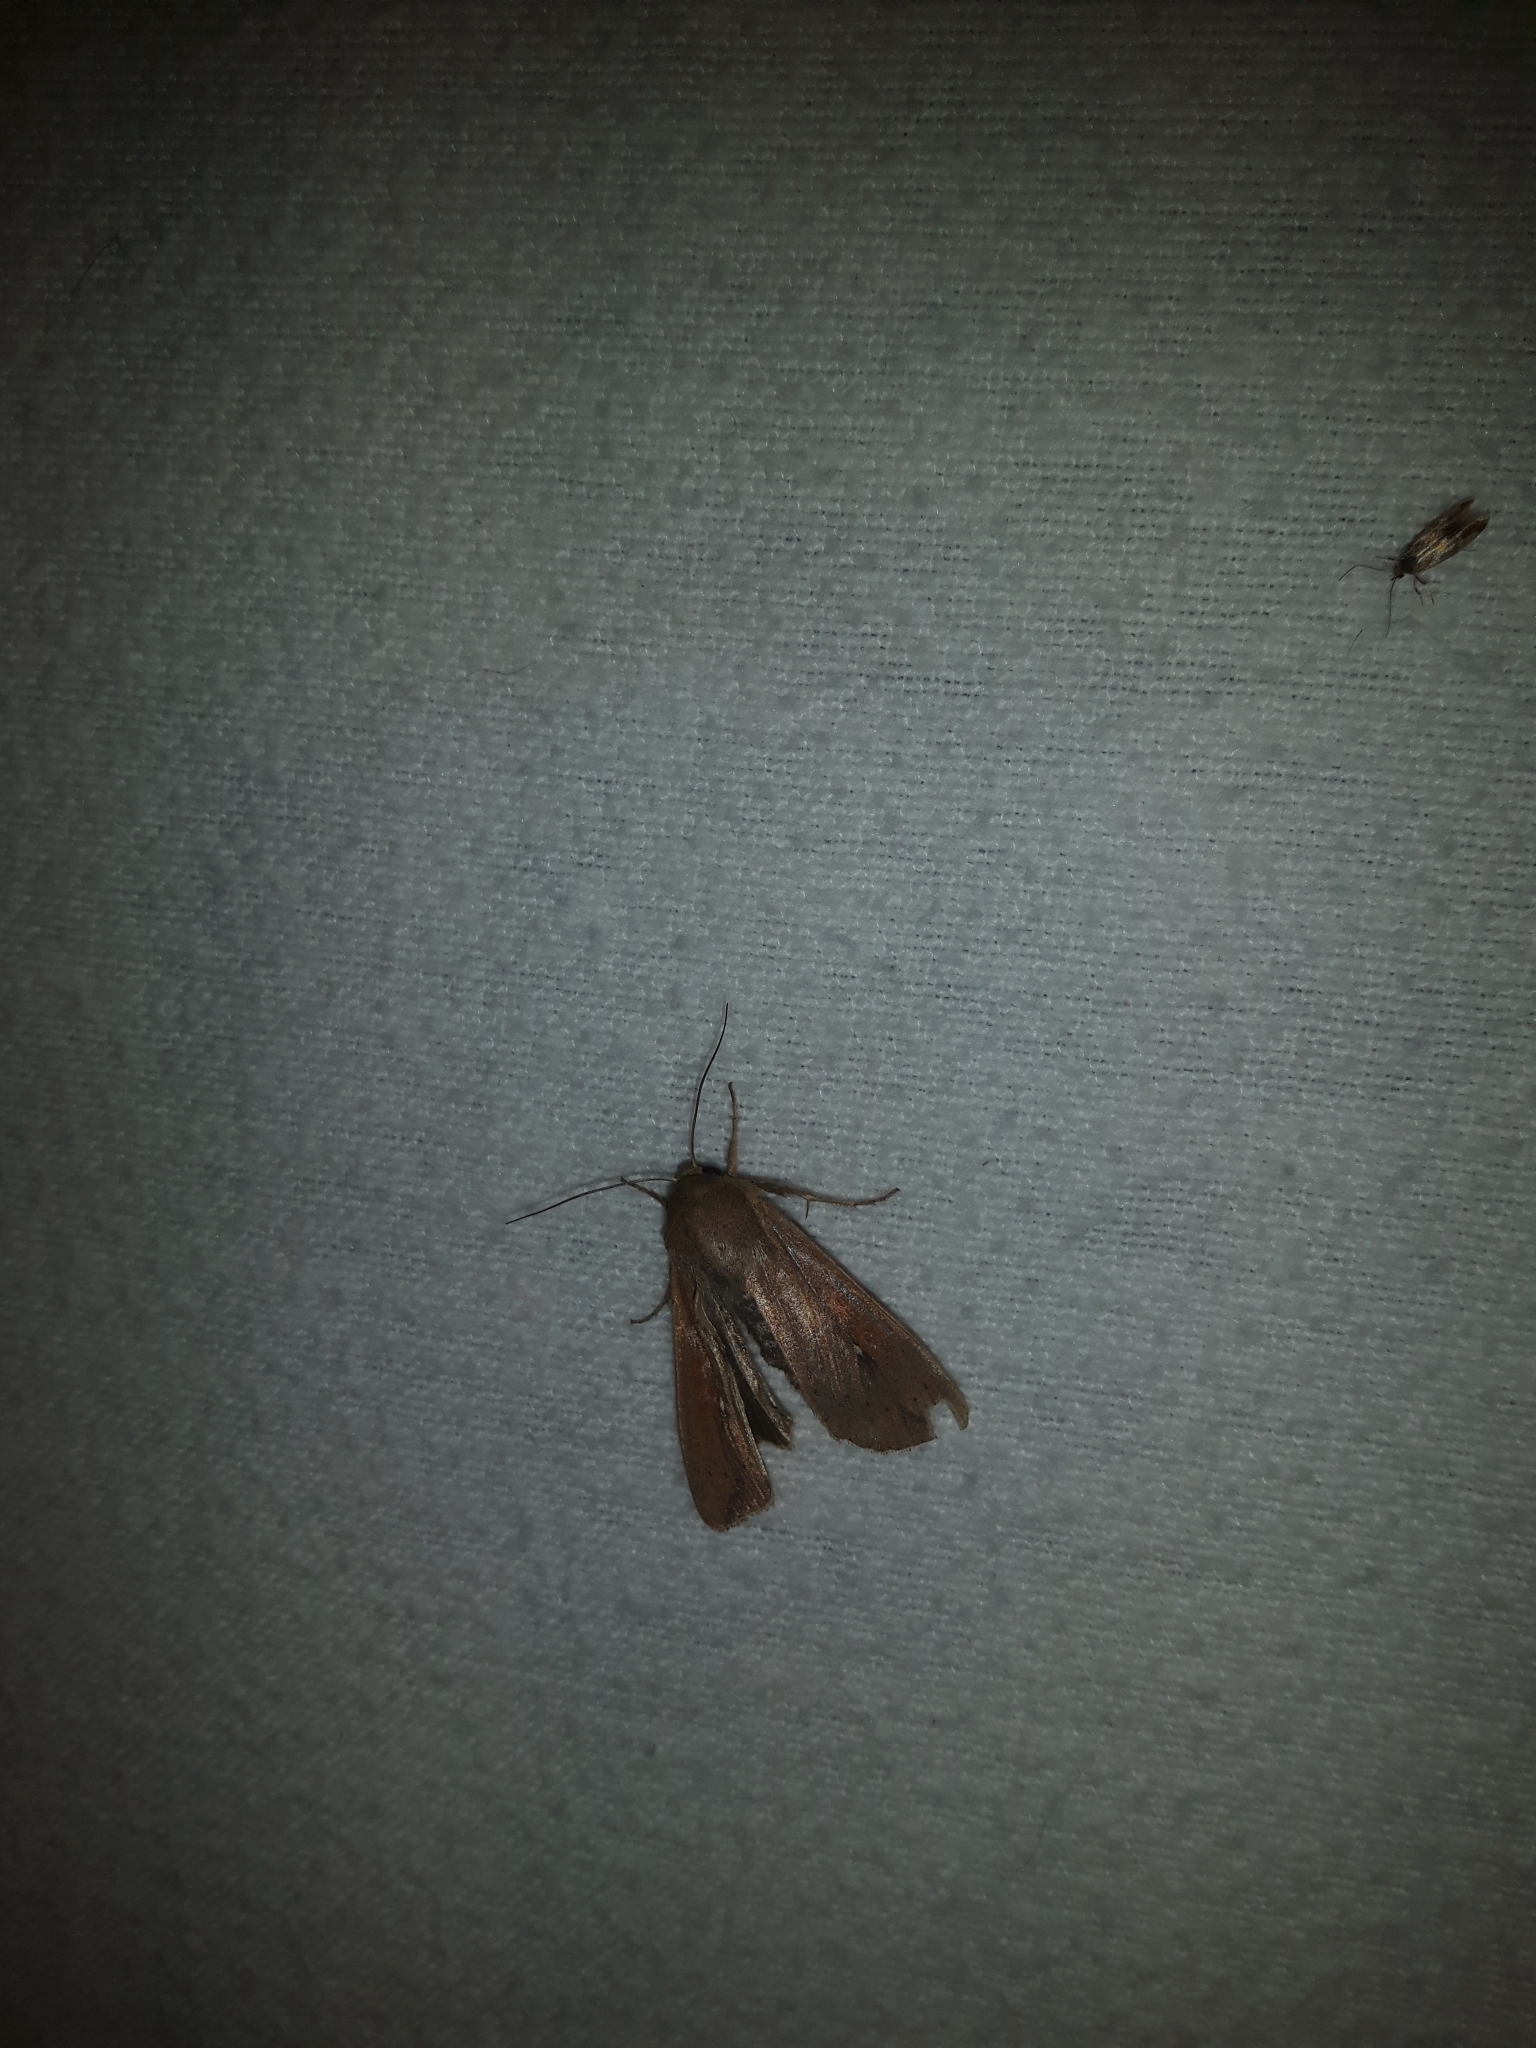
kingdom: Animalia
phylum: Arthropoda
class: Insecta
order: Lepidoptera
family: Noctuidae
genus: Mythimna
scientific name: Mythimna unipuncta
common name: White-speck
